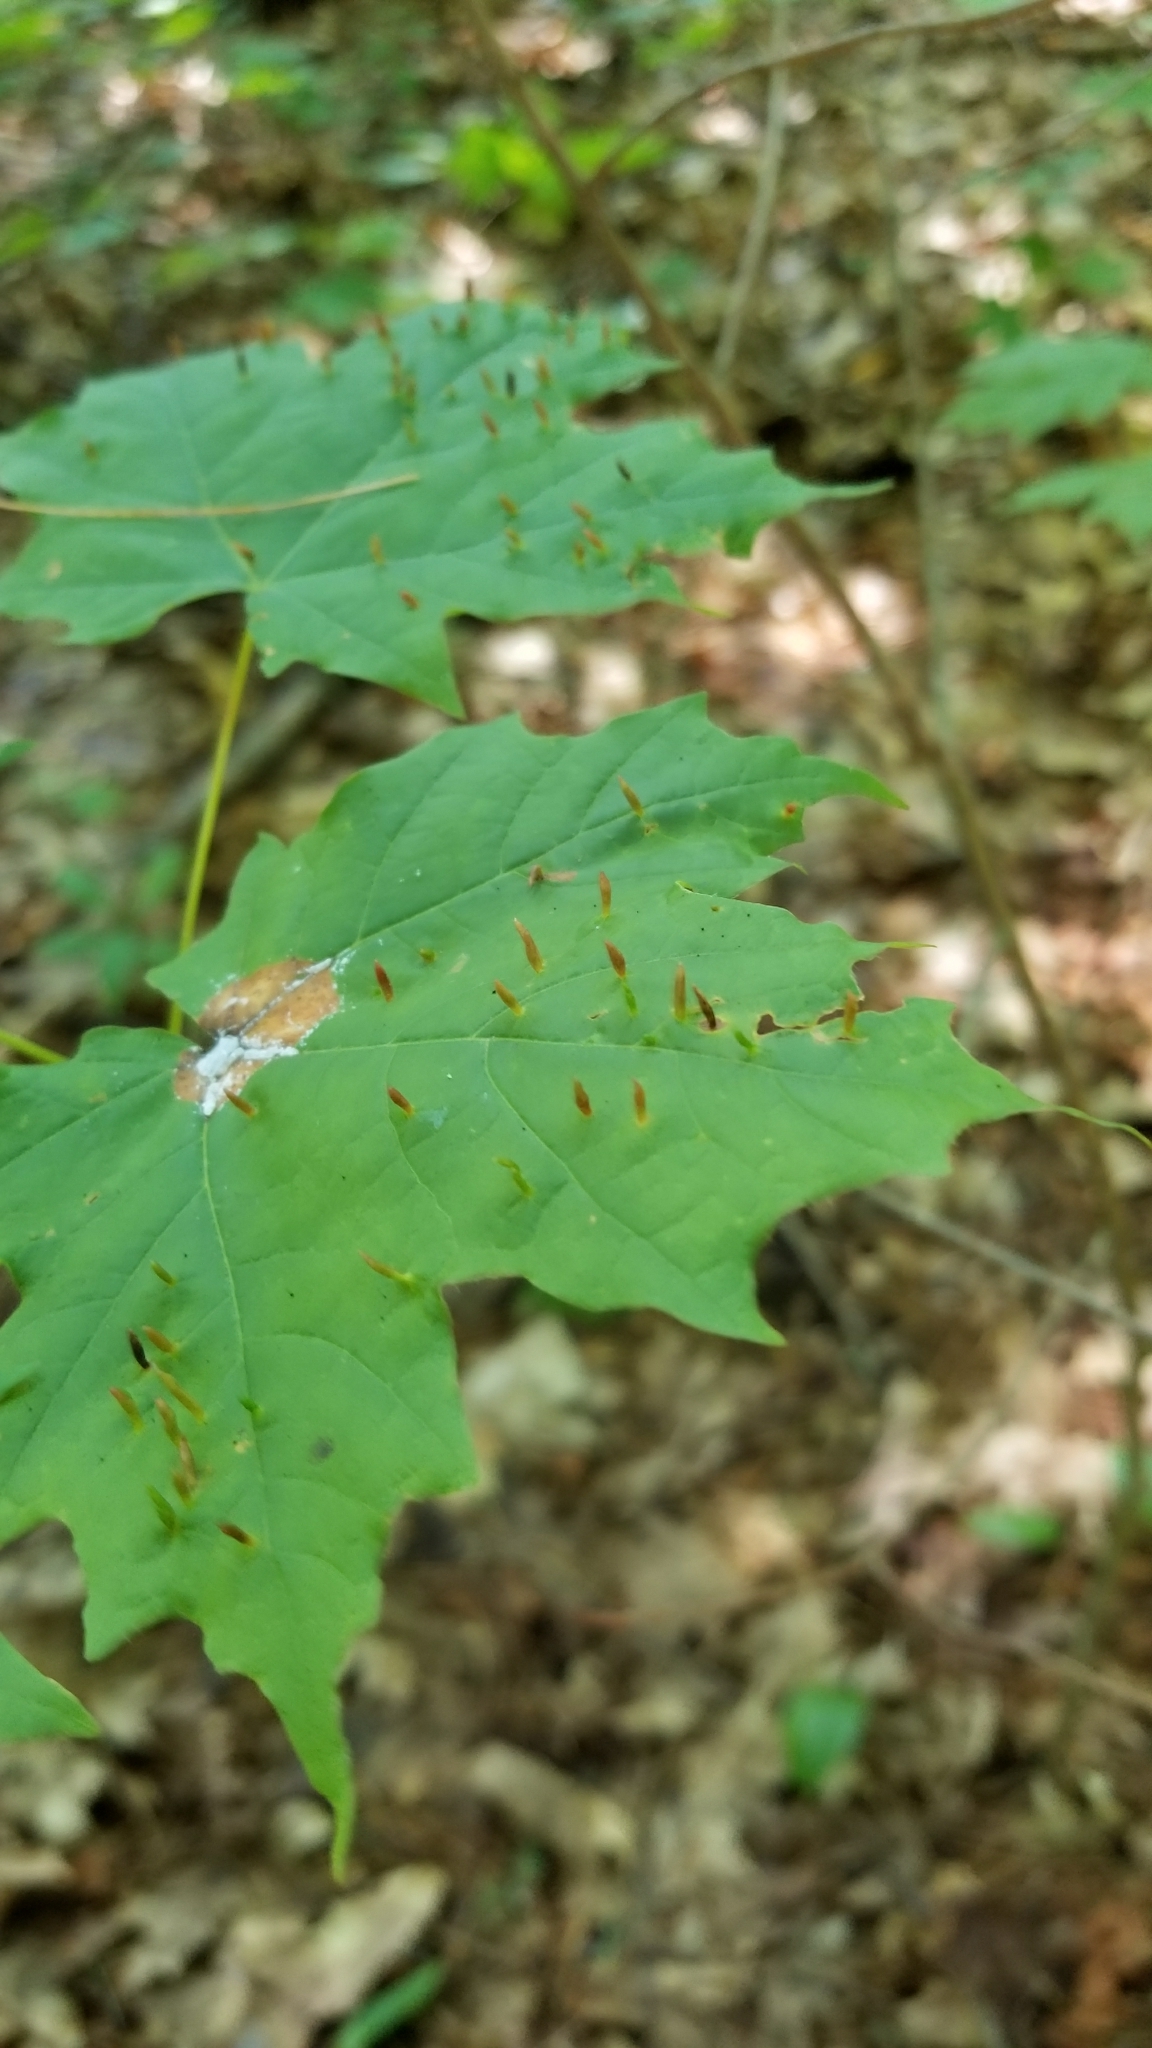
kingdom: Animalia
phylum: Arthropoda
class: Arachnida
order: Trombidiformes
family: Eriophyidae
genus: Vasates
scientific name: Vasates aceriscrumena
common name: Maple spindle gall mite
